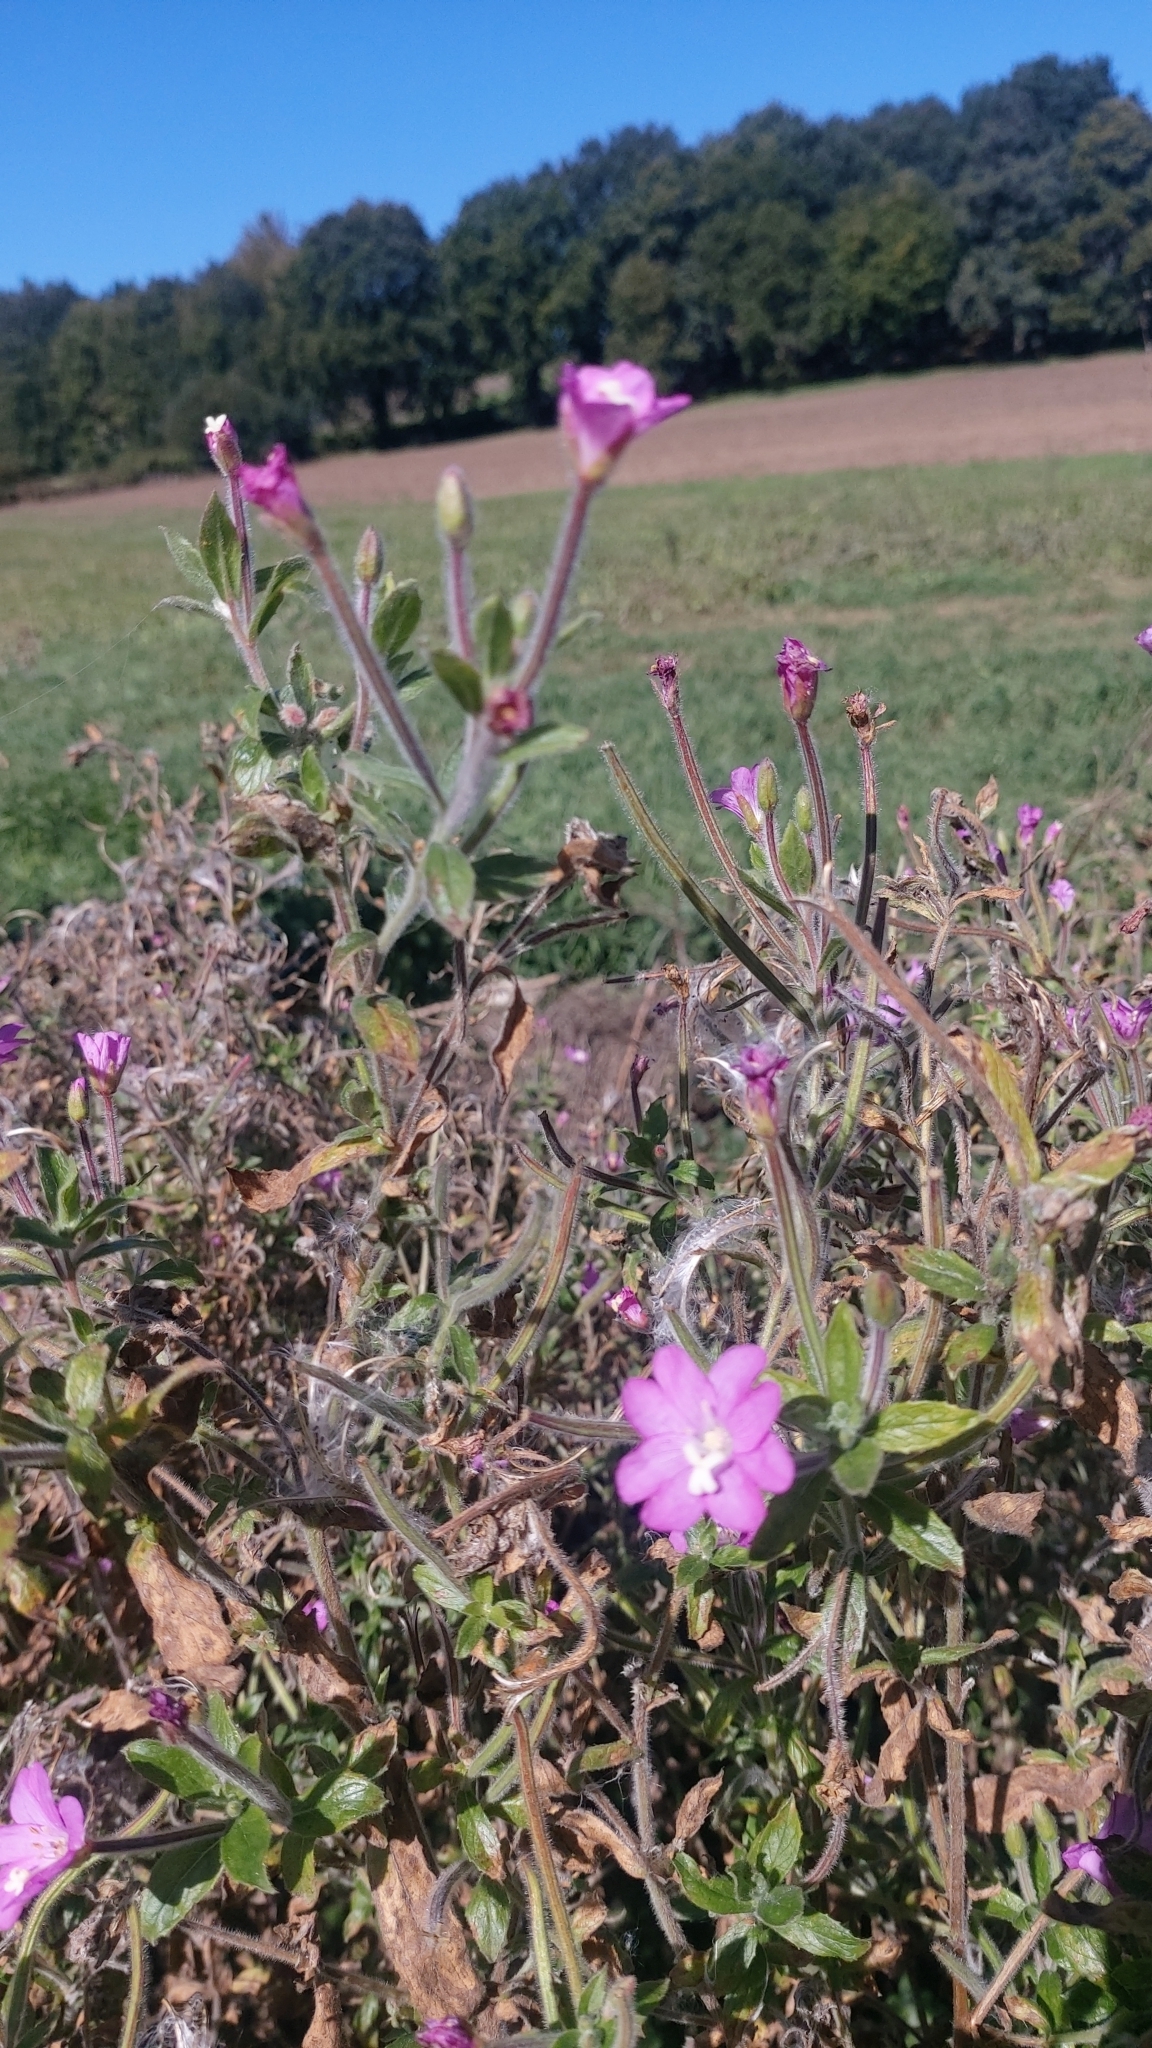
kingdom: Plantae
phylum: Tracheophyta
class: Magnoliopsida
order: Myrtales
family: Onagraceae
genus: Epilobium
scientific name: Epilobium hirsutum
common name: Great willowherb
